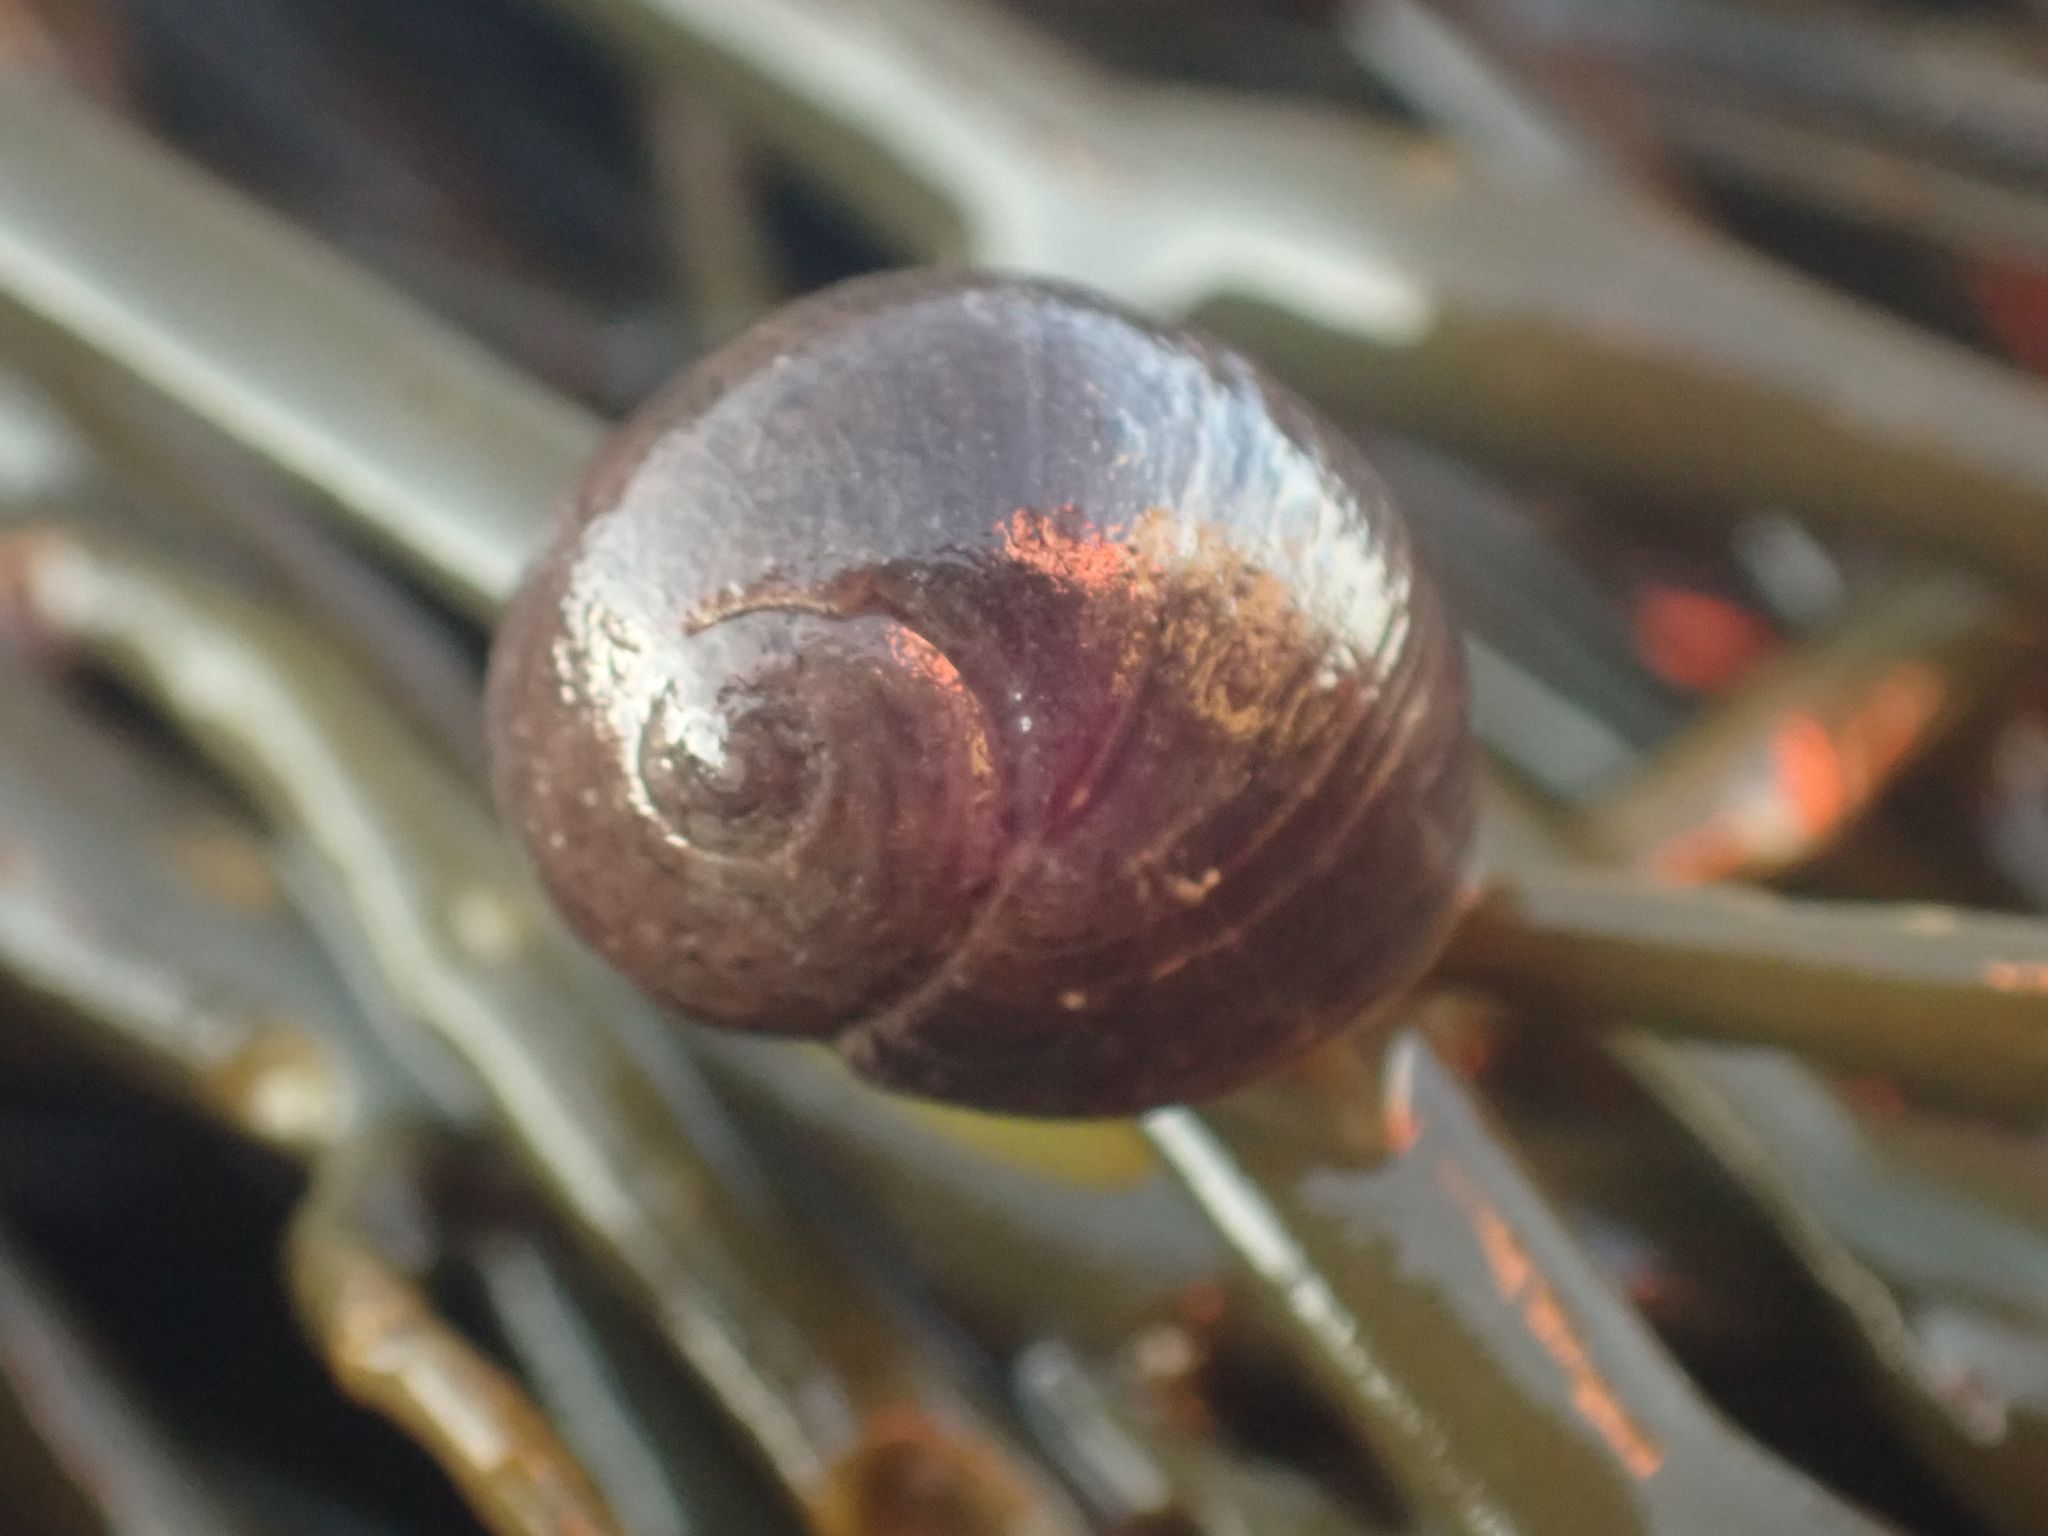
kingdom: Animalia
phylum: Mollusca
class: Gastropoda
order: Littorinimorpha
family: Littorinidae
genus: Littorina
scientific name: Littorina obtusata
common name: Flat periwinkle
